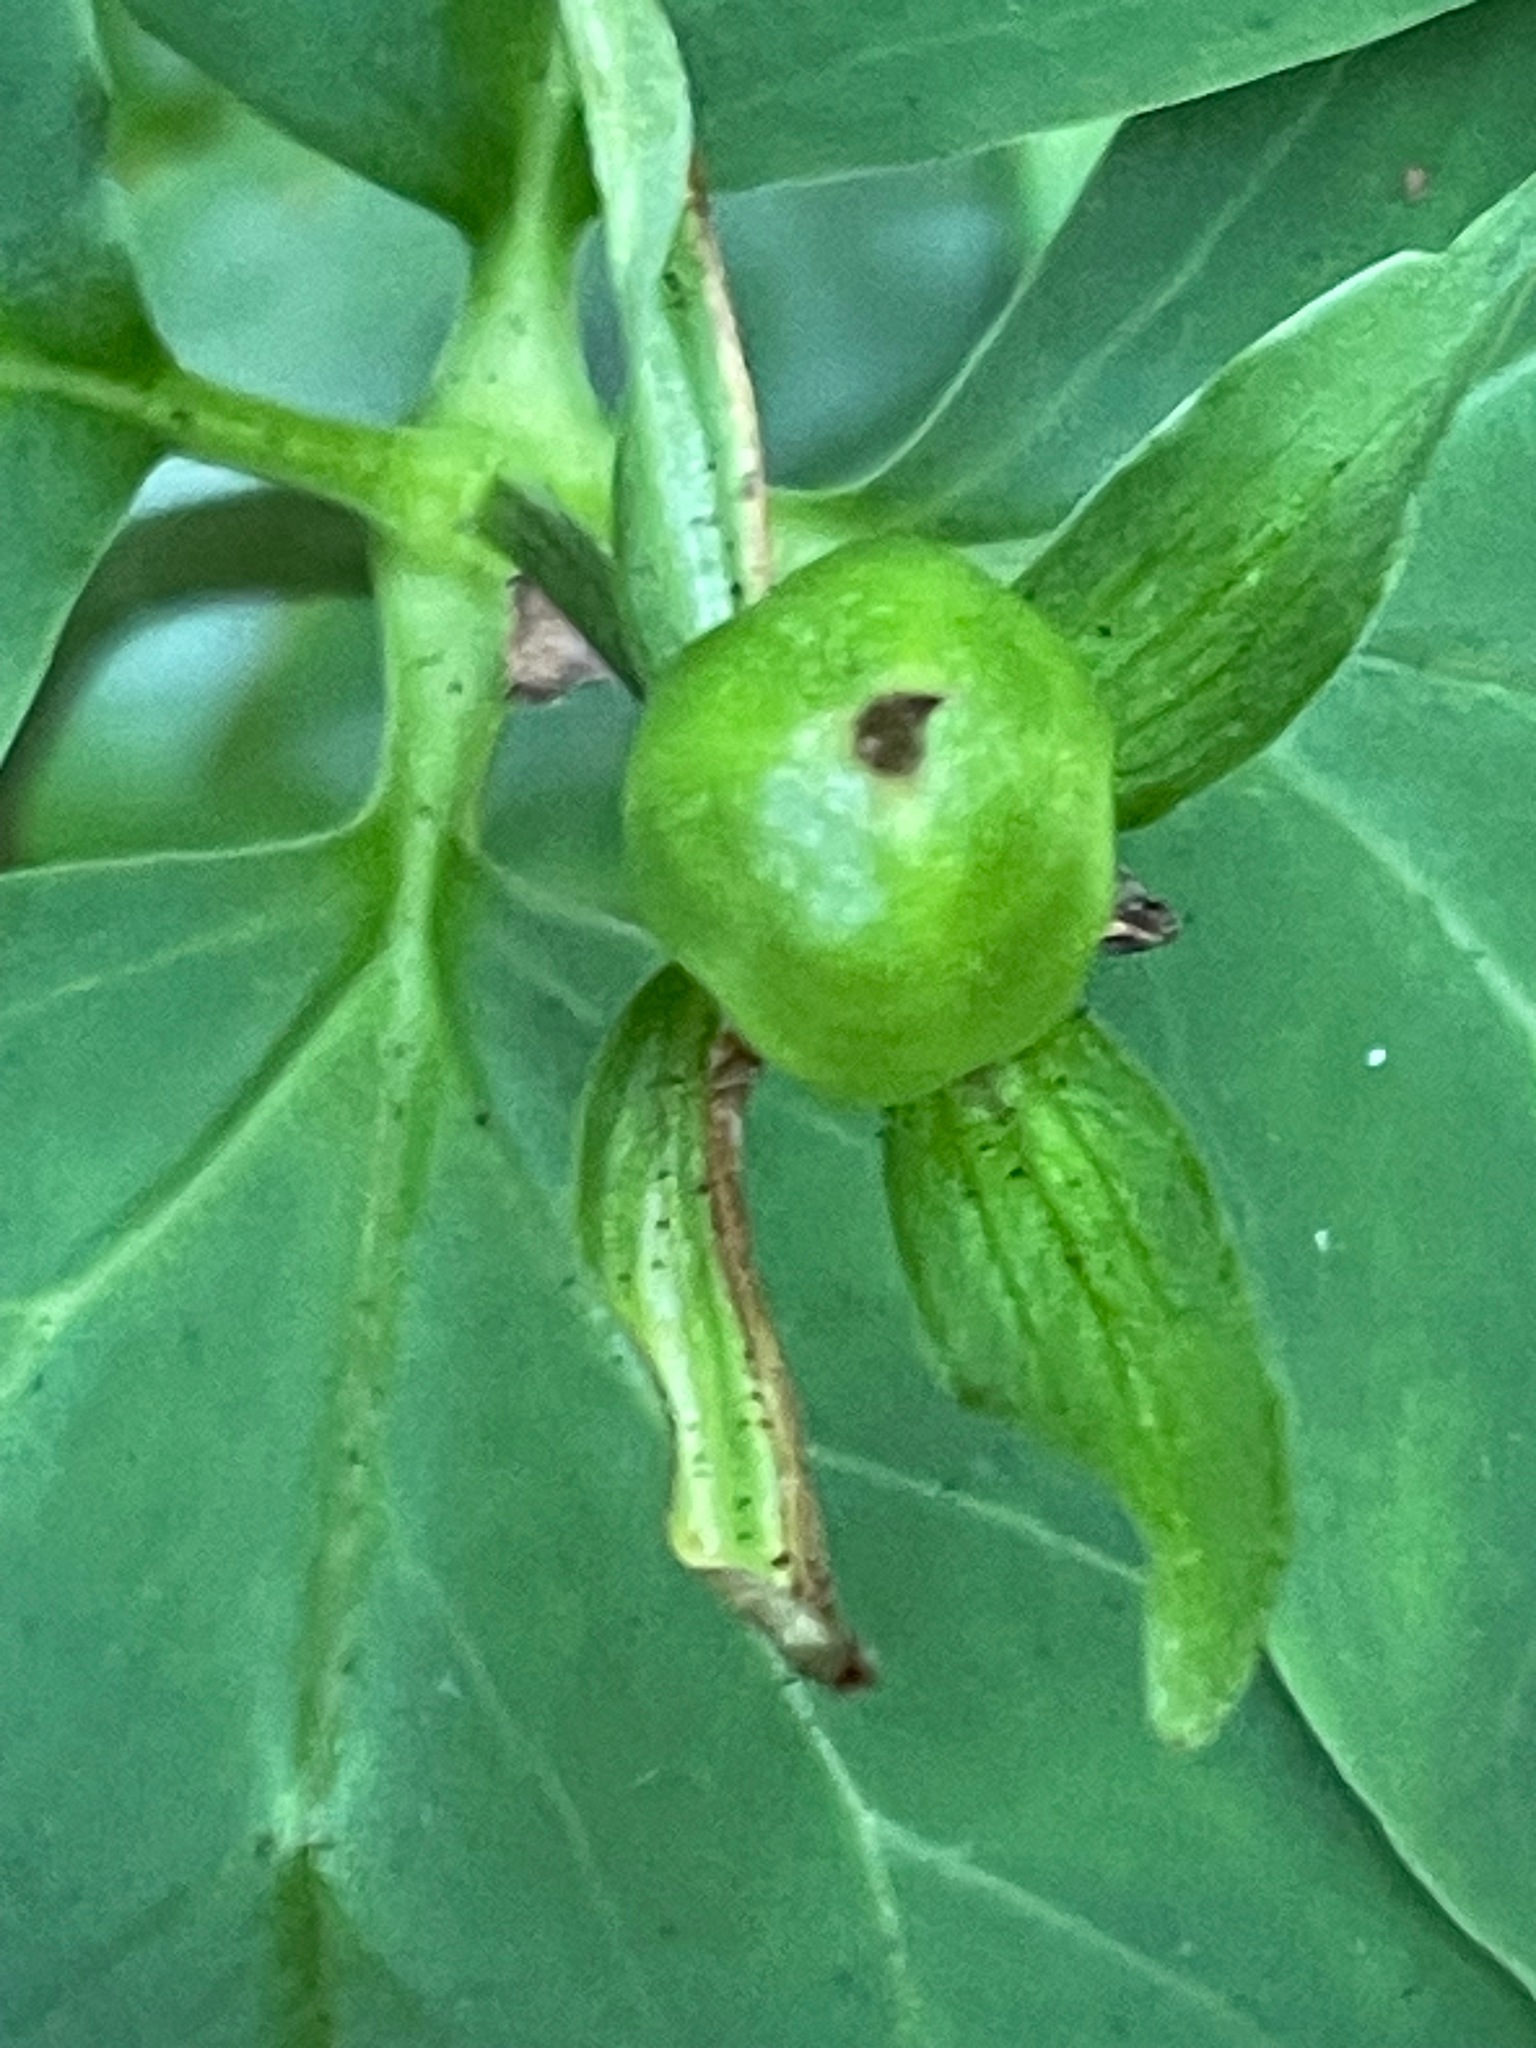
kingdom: Plantae
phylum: Tracheophyta
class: Liliopsida
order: Liliales
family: Melanthiaceae
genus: Trillium
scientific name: Trillium undulatum
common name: Paint trillium
